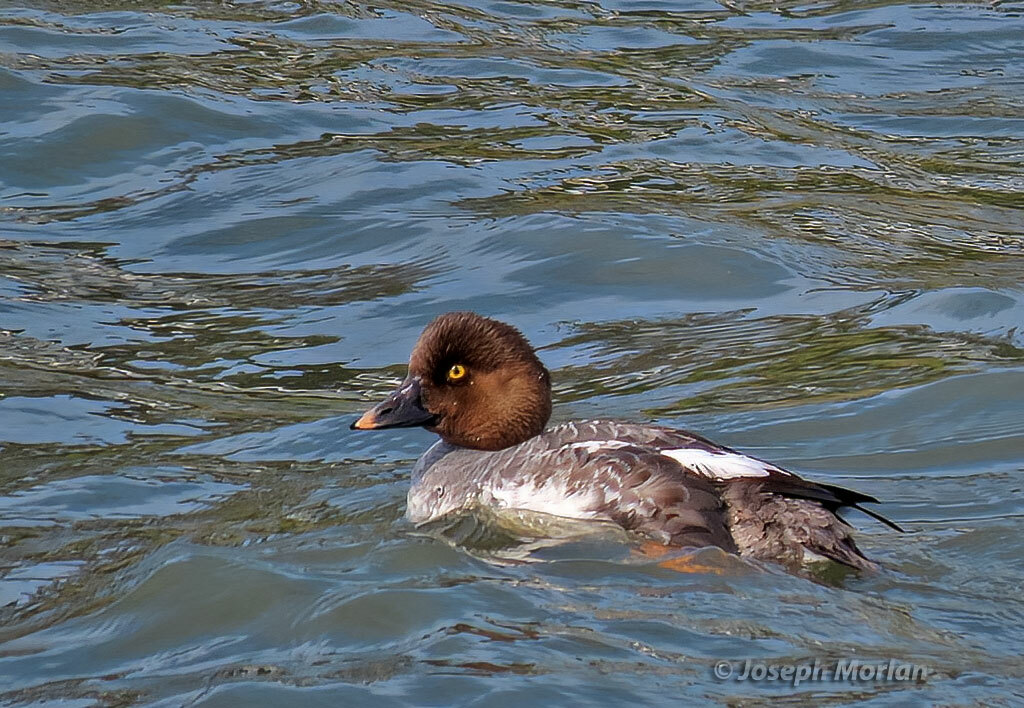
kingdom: Animalia
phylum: Chordata
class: Aves
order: Anseriformes
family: Anatidae
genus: Bucephala
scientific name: Bucephala clangula
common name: Common goldeneye
